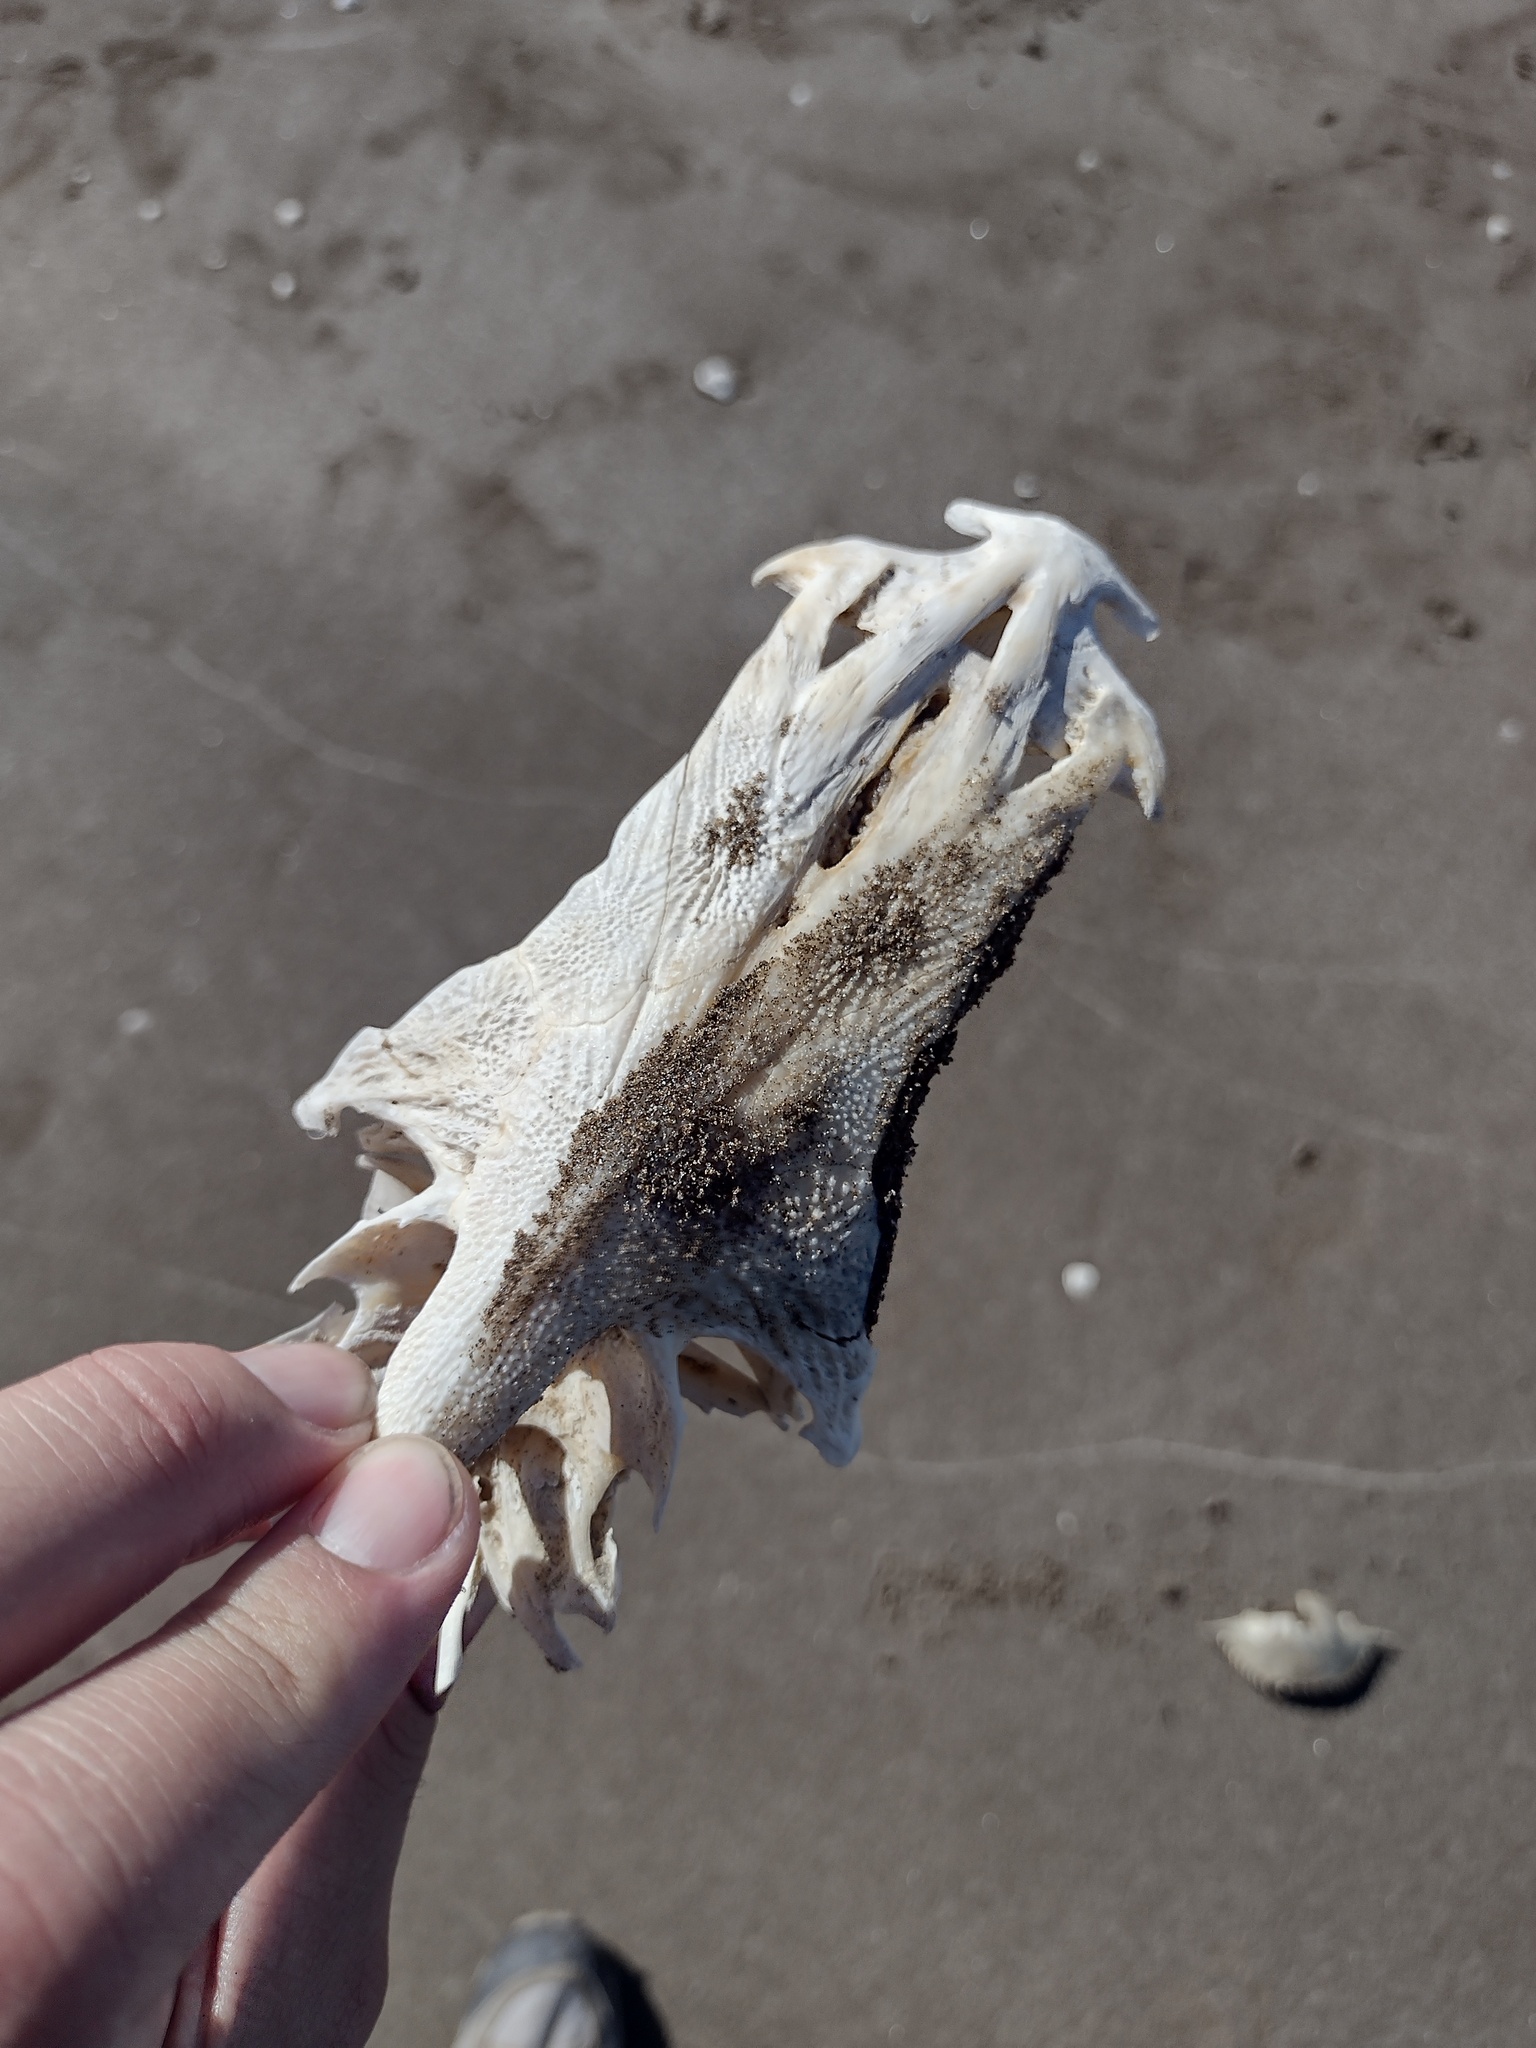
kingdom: Animalia
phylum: Chordata
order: Siluriformes
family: Ariidae
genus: Genidens
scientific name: Genidens barbus
